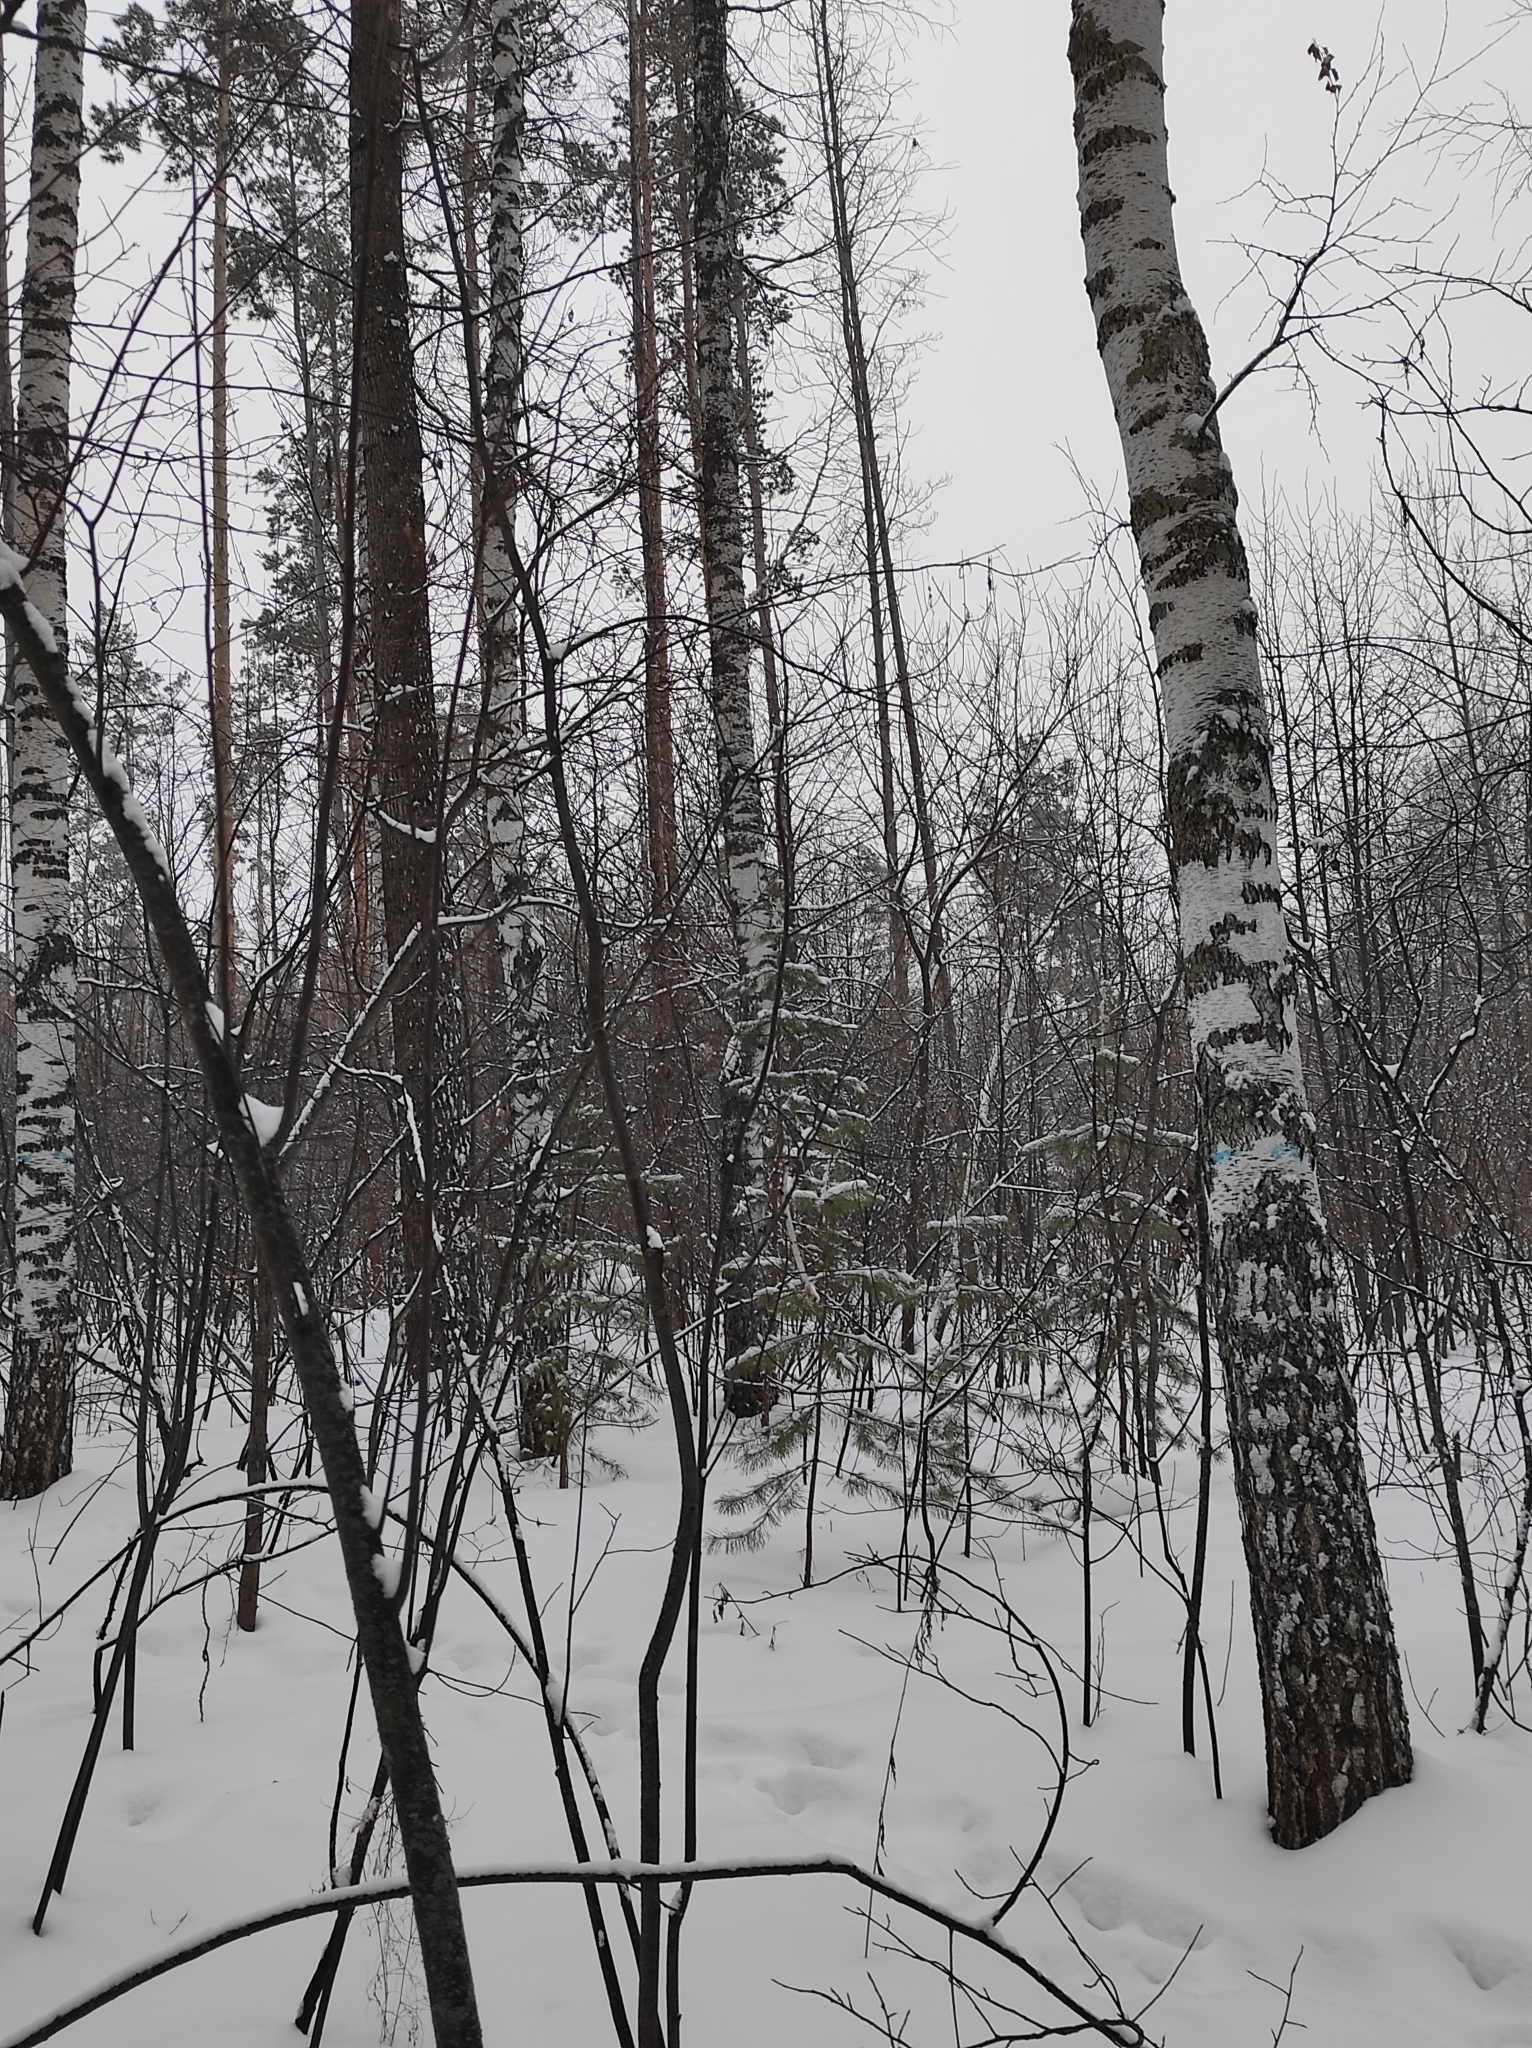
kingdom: Plantae
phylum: Tracheophyta
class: Pinopsida
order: Pinales
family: Pinaceae
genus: Pinus
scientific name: Pinus sylvestris
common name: Scots pine
